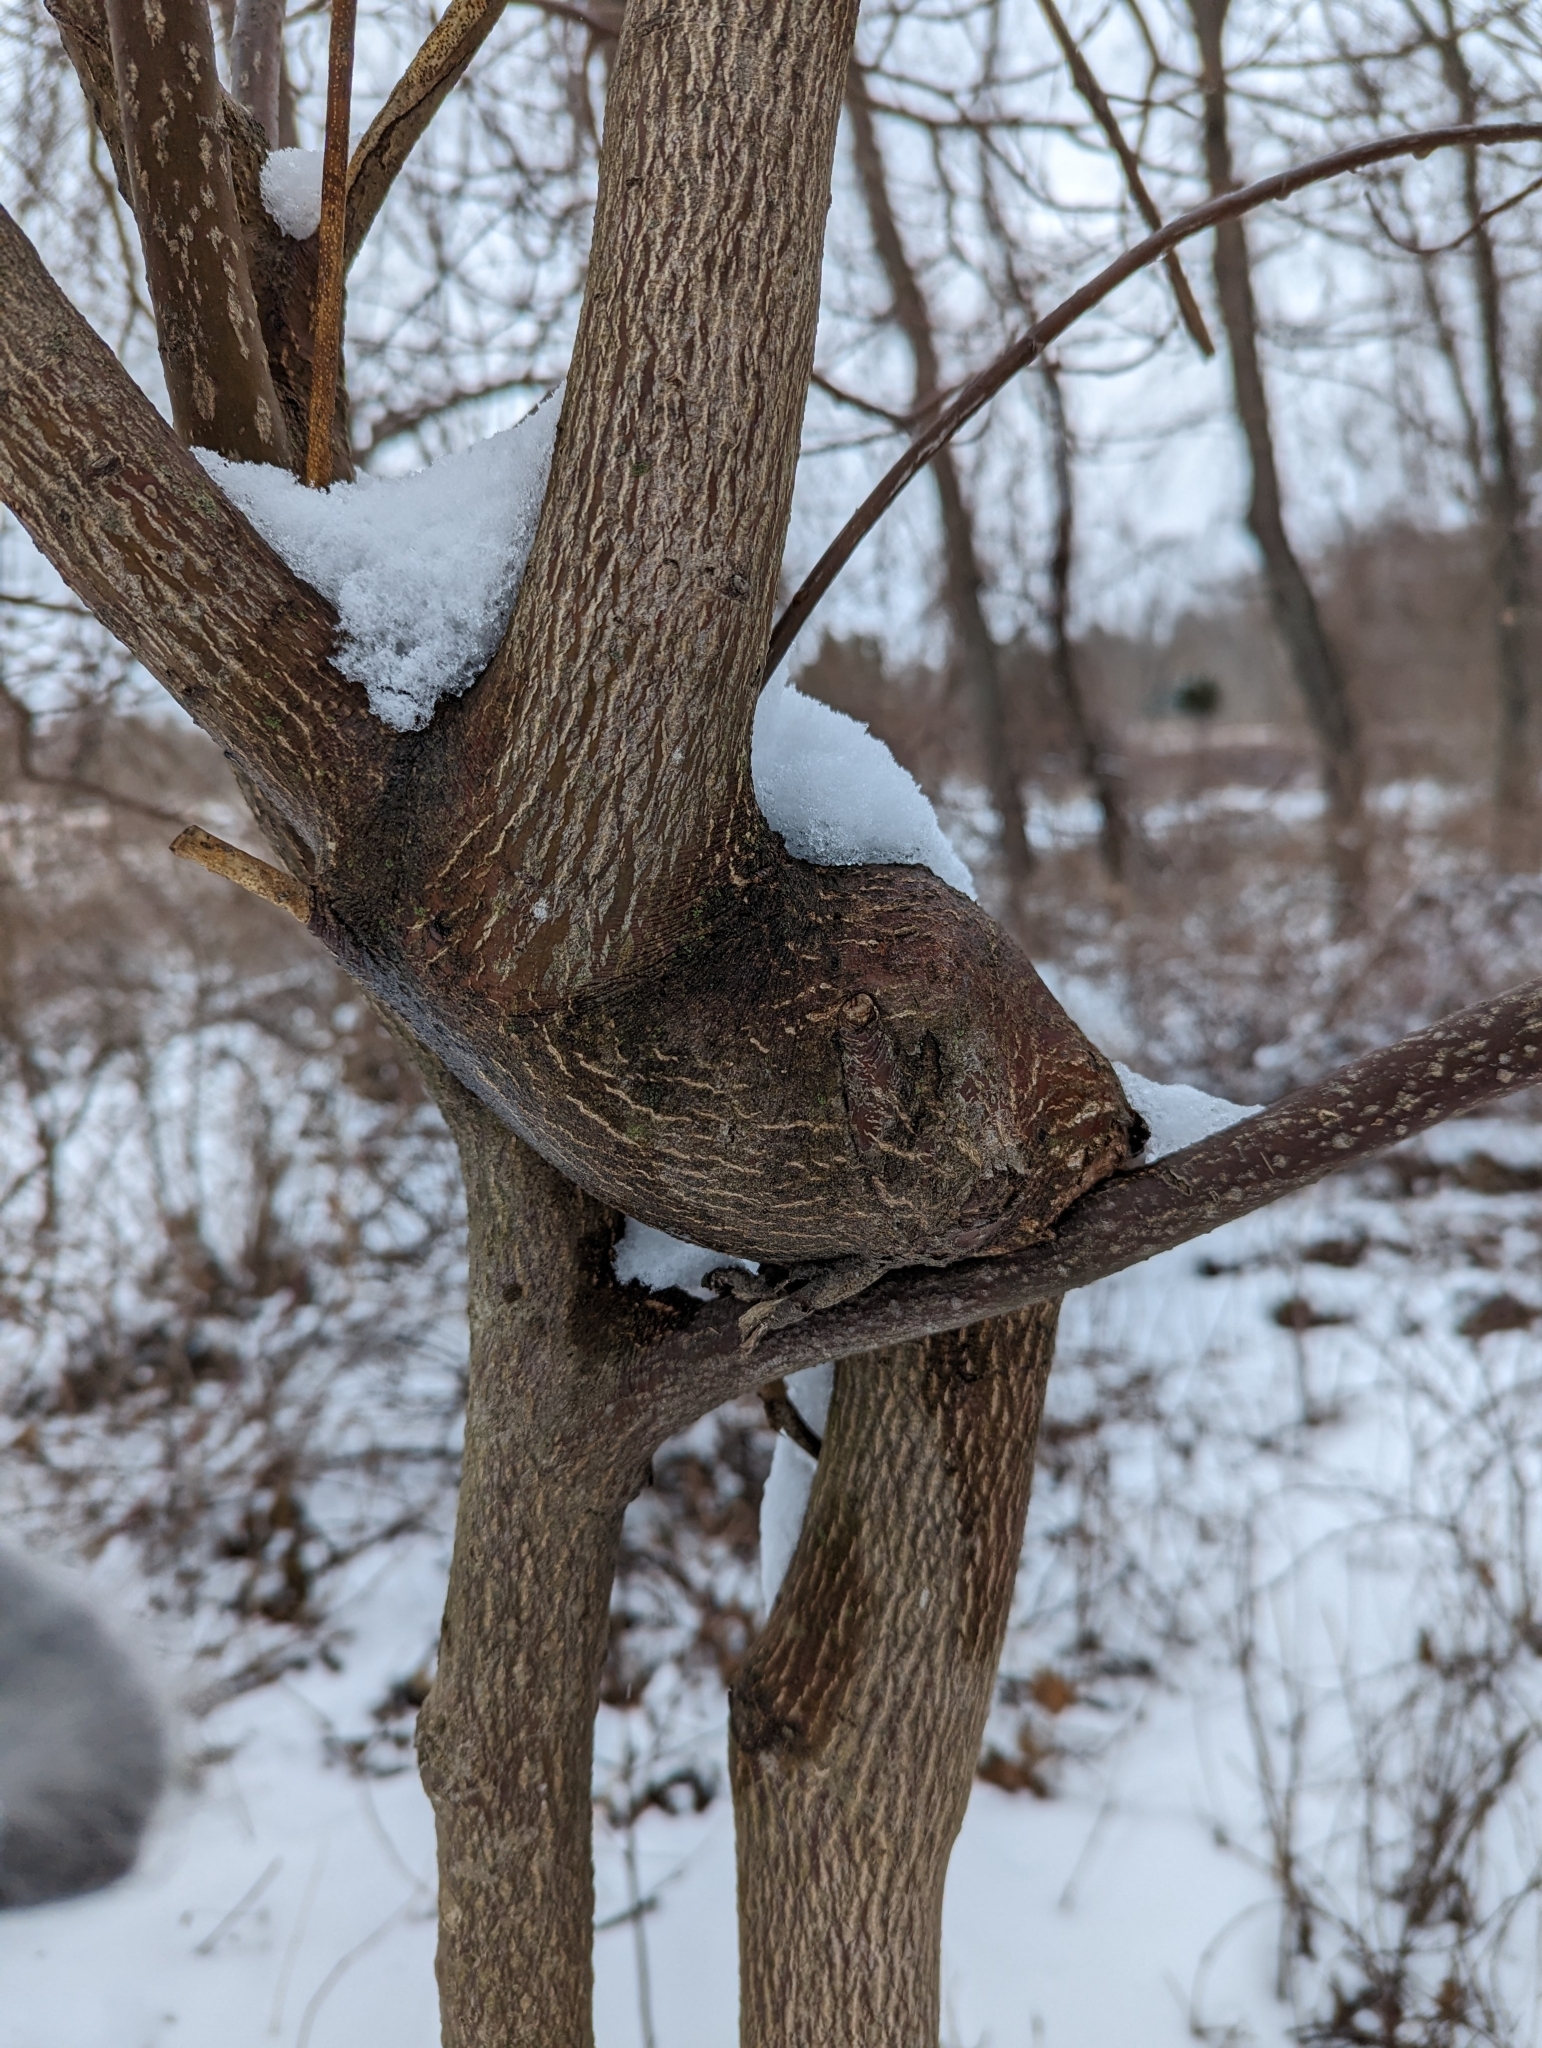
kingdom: Plantae
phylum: Tracheophyta
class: Magnoliopsida
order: Cornales
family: Cornaceae
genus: Cornus
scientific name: Cornus alternifolia
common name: Pagoda dogwood
